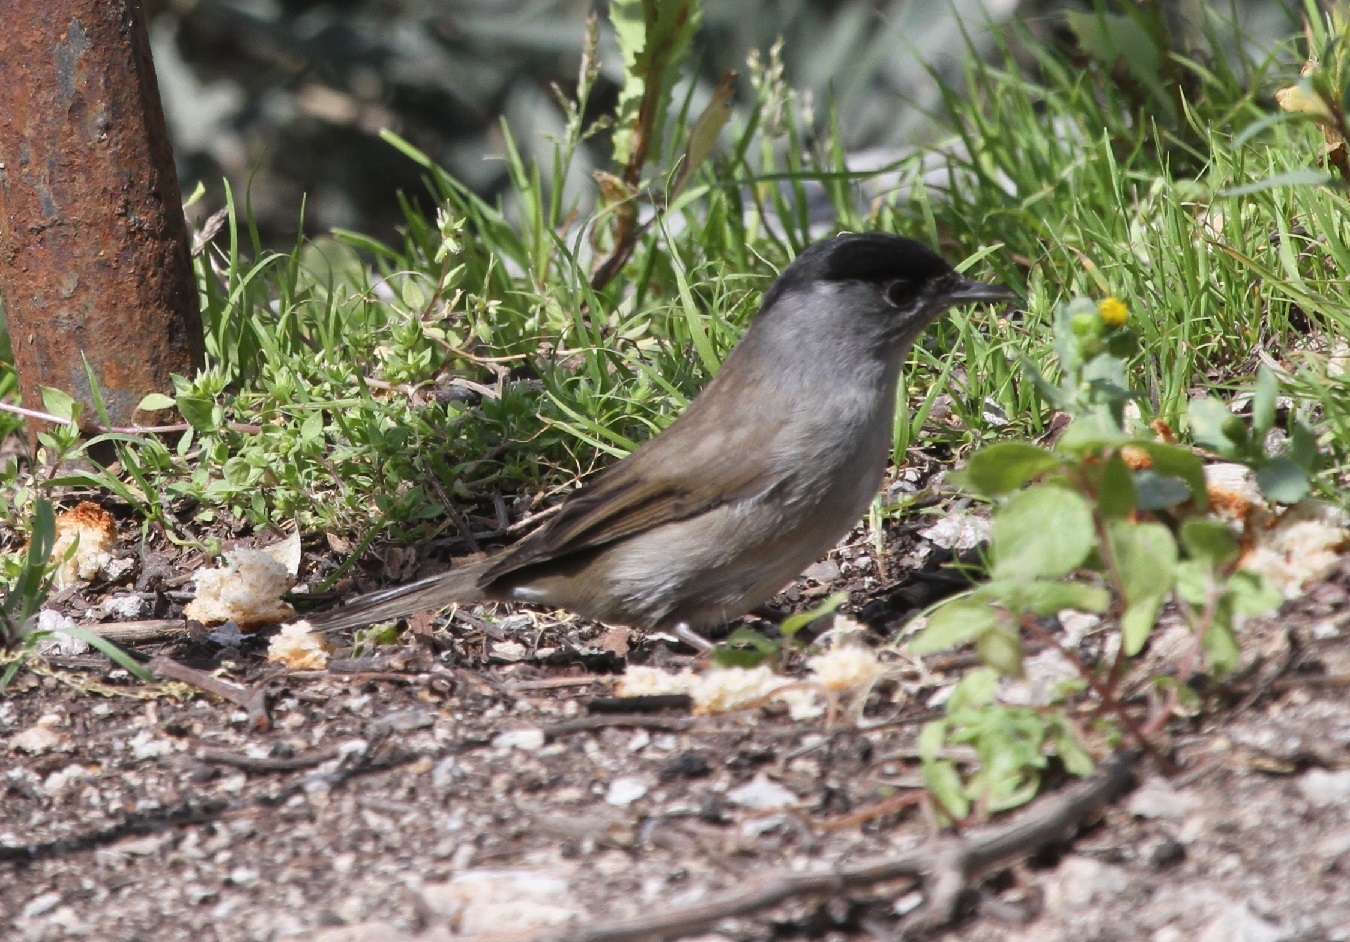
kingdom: Animalia
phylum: Chordata
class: Aves
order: Passeriformes
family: Sylviidae
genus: Sylvia
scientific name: Sylvia atricapilla
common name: Eurasian blackcap
